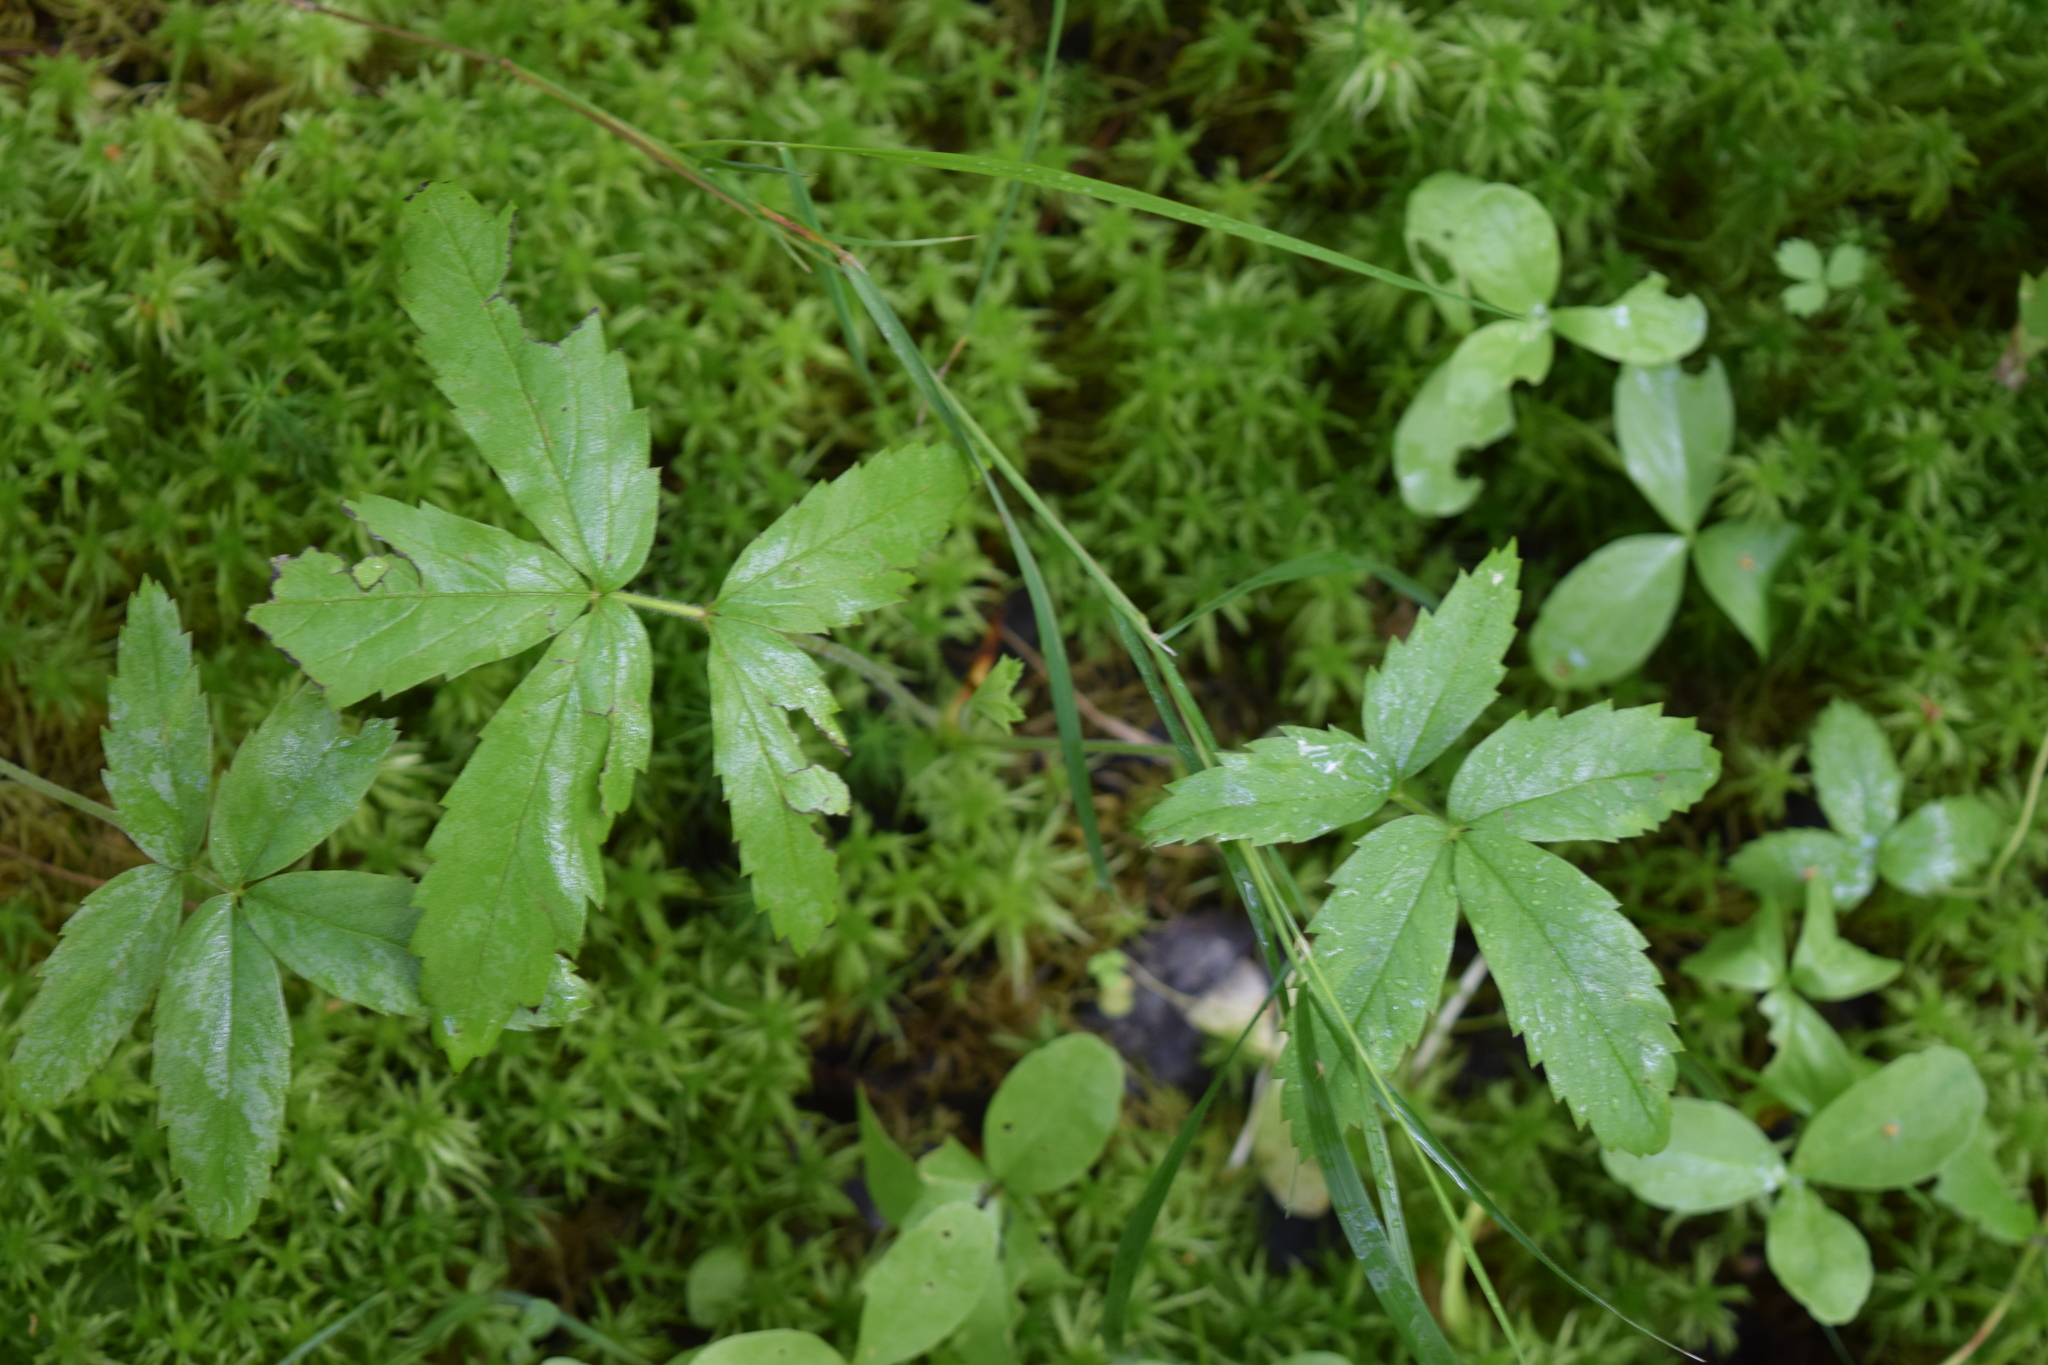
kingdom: Plantae
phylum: Tracheophyta
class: Magnoliopsida
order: Rosales
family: Rosaceae
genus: Comarum
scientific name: Comarum palustre
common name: Marsh cinquefoil
